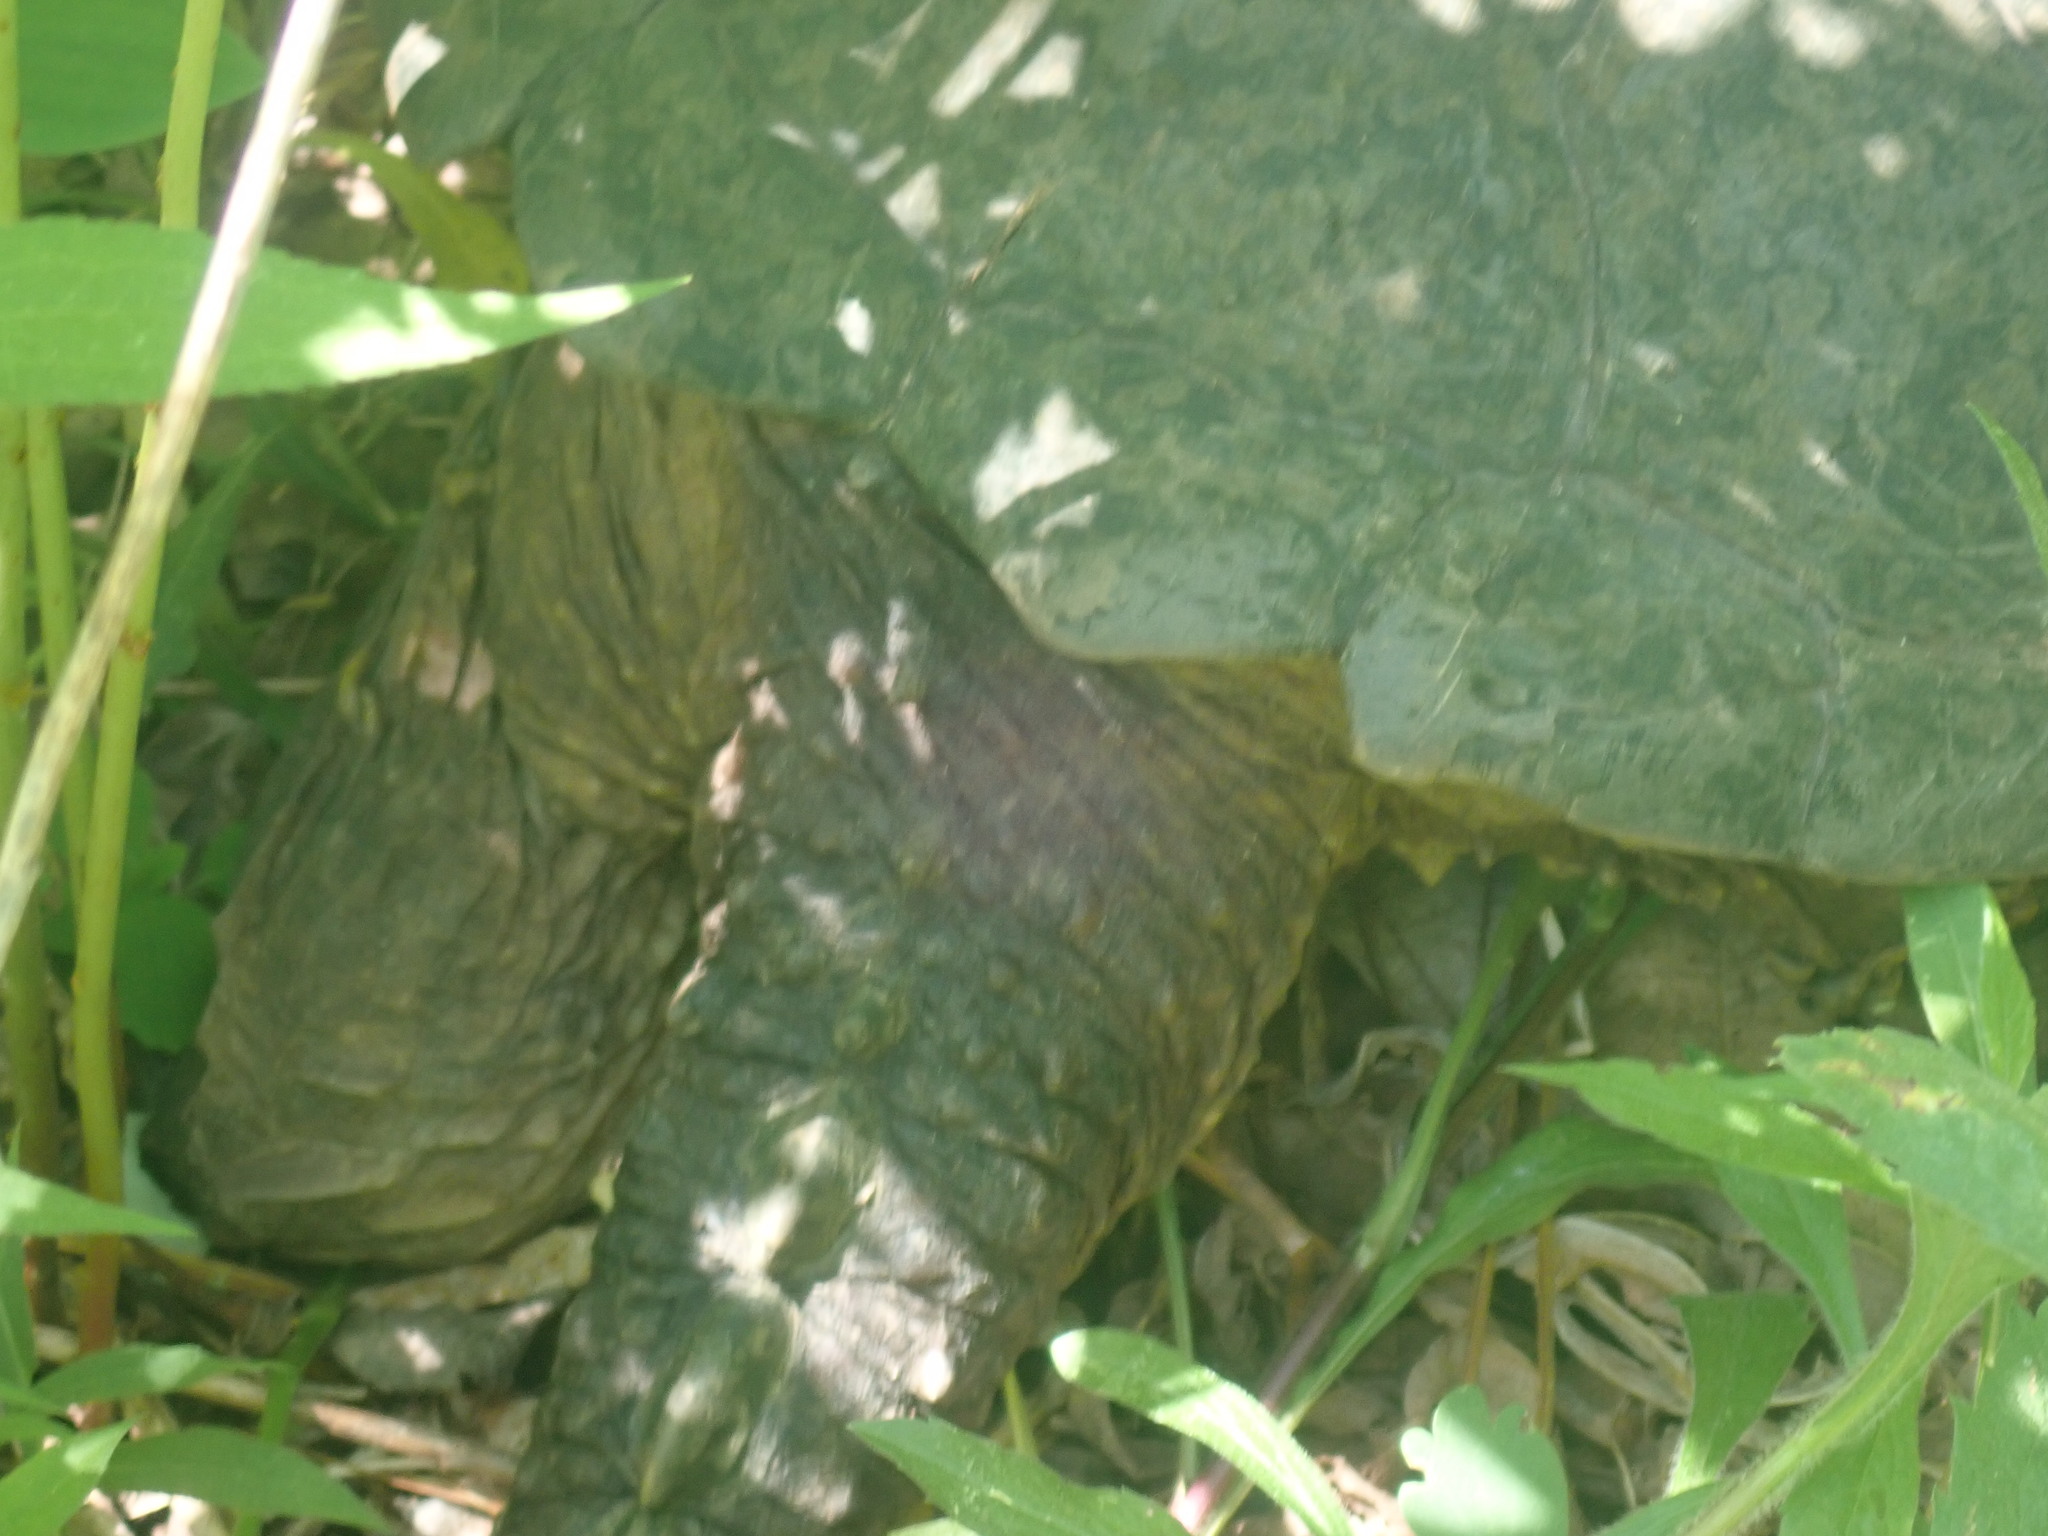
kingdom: Animalia
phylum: Chordata
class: Testudines
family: Chelydridae
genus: Chelydra
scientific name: Chelydra serpentina
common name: Common snapping turtle
